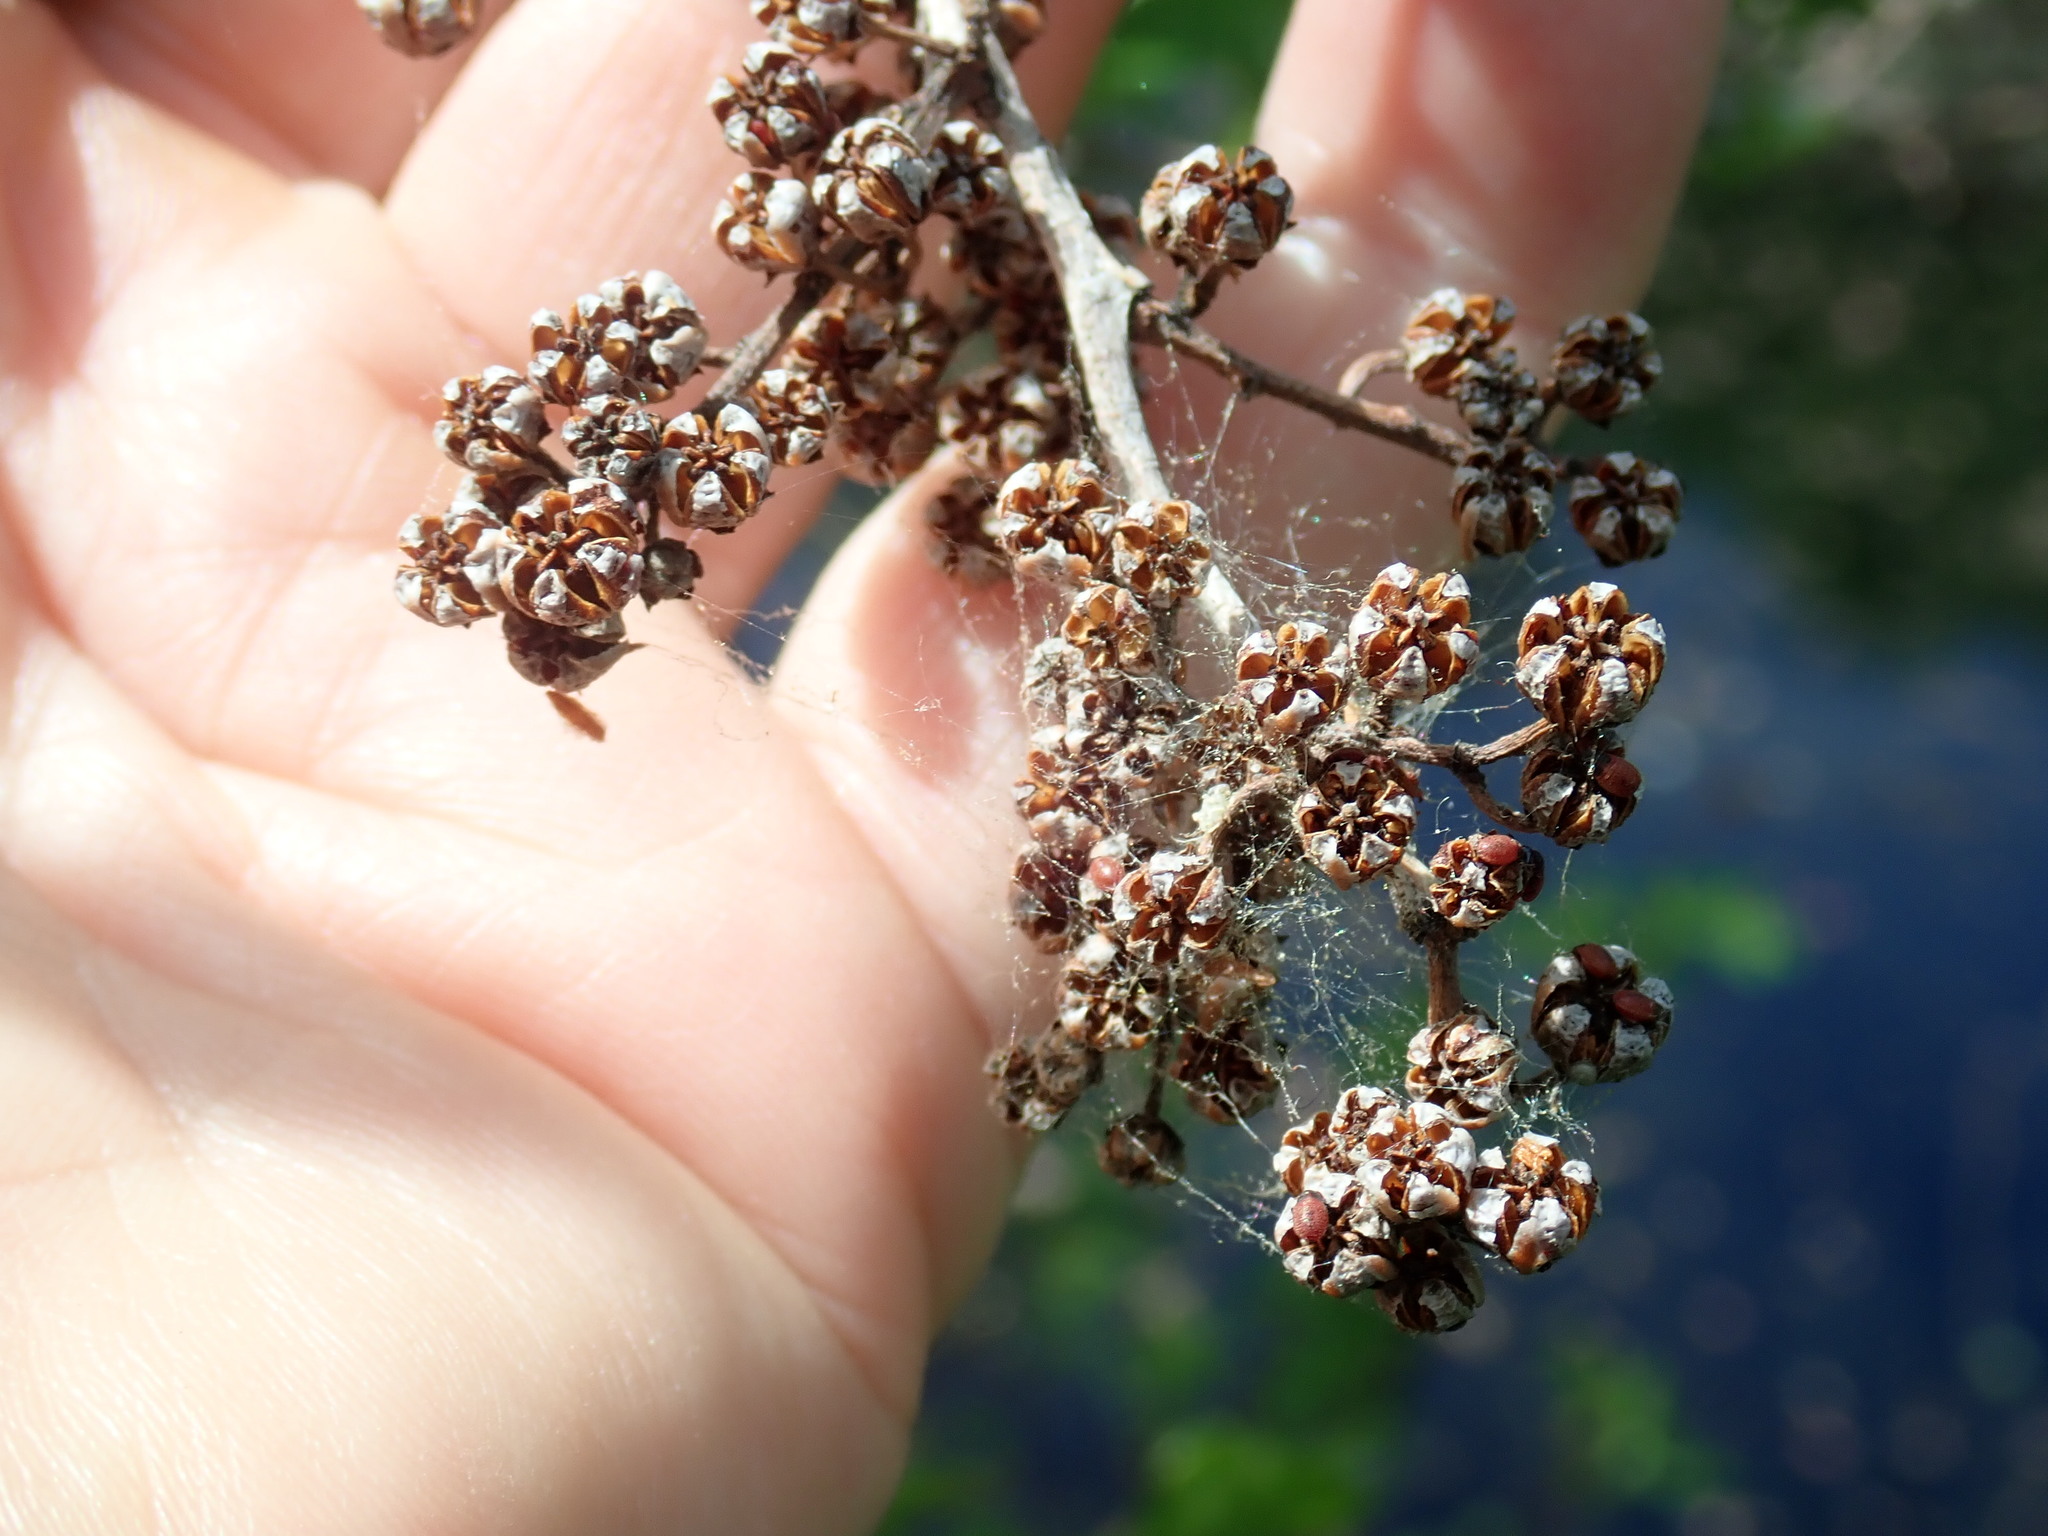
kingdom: Plantae
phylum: Tracheophyta
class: Magnoliopsida
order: Ericales
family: Ericaceae
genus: Lyonia
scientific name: Lyonia ligustrina
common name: Maleberry
